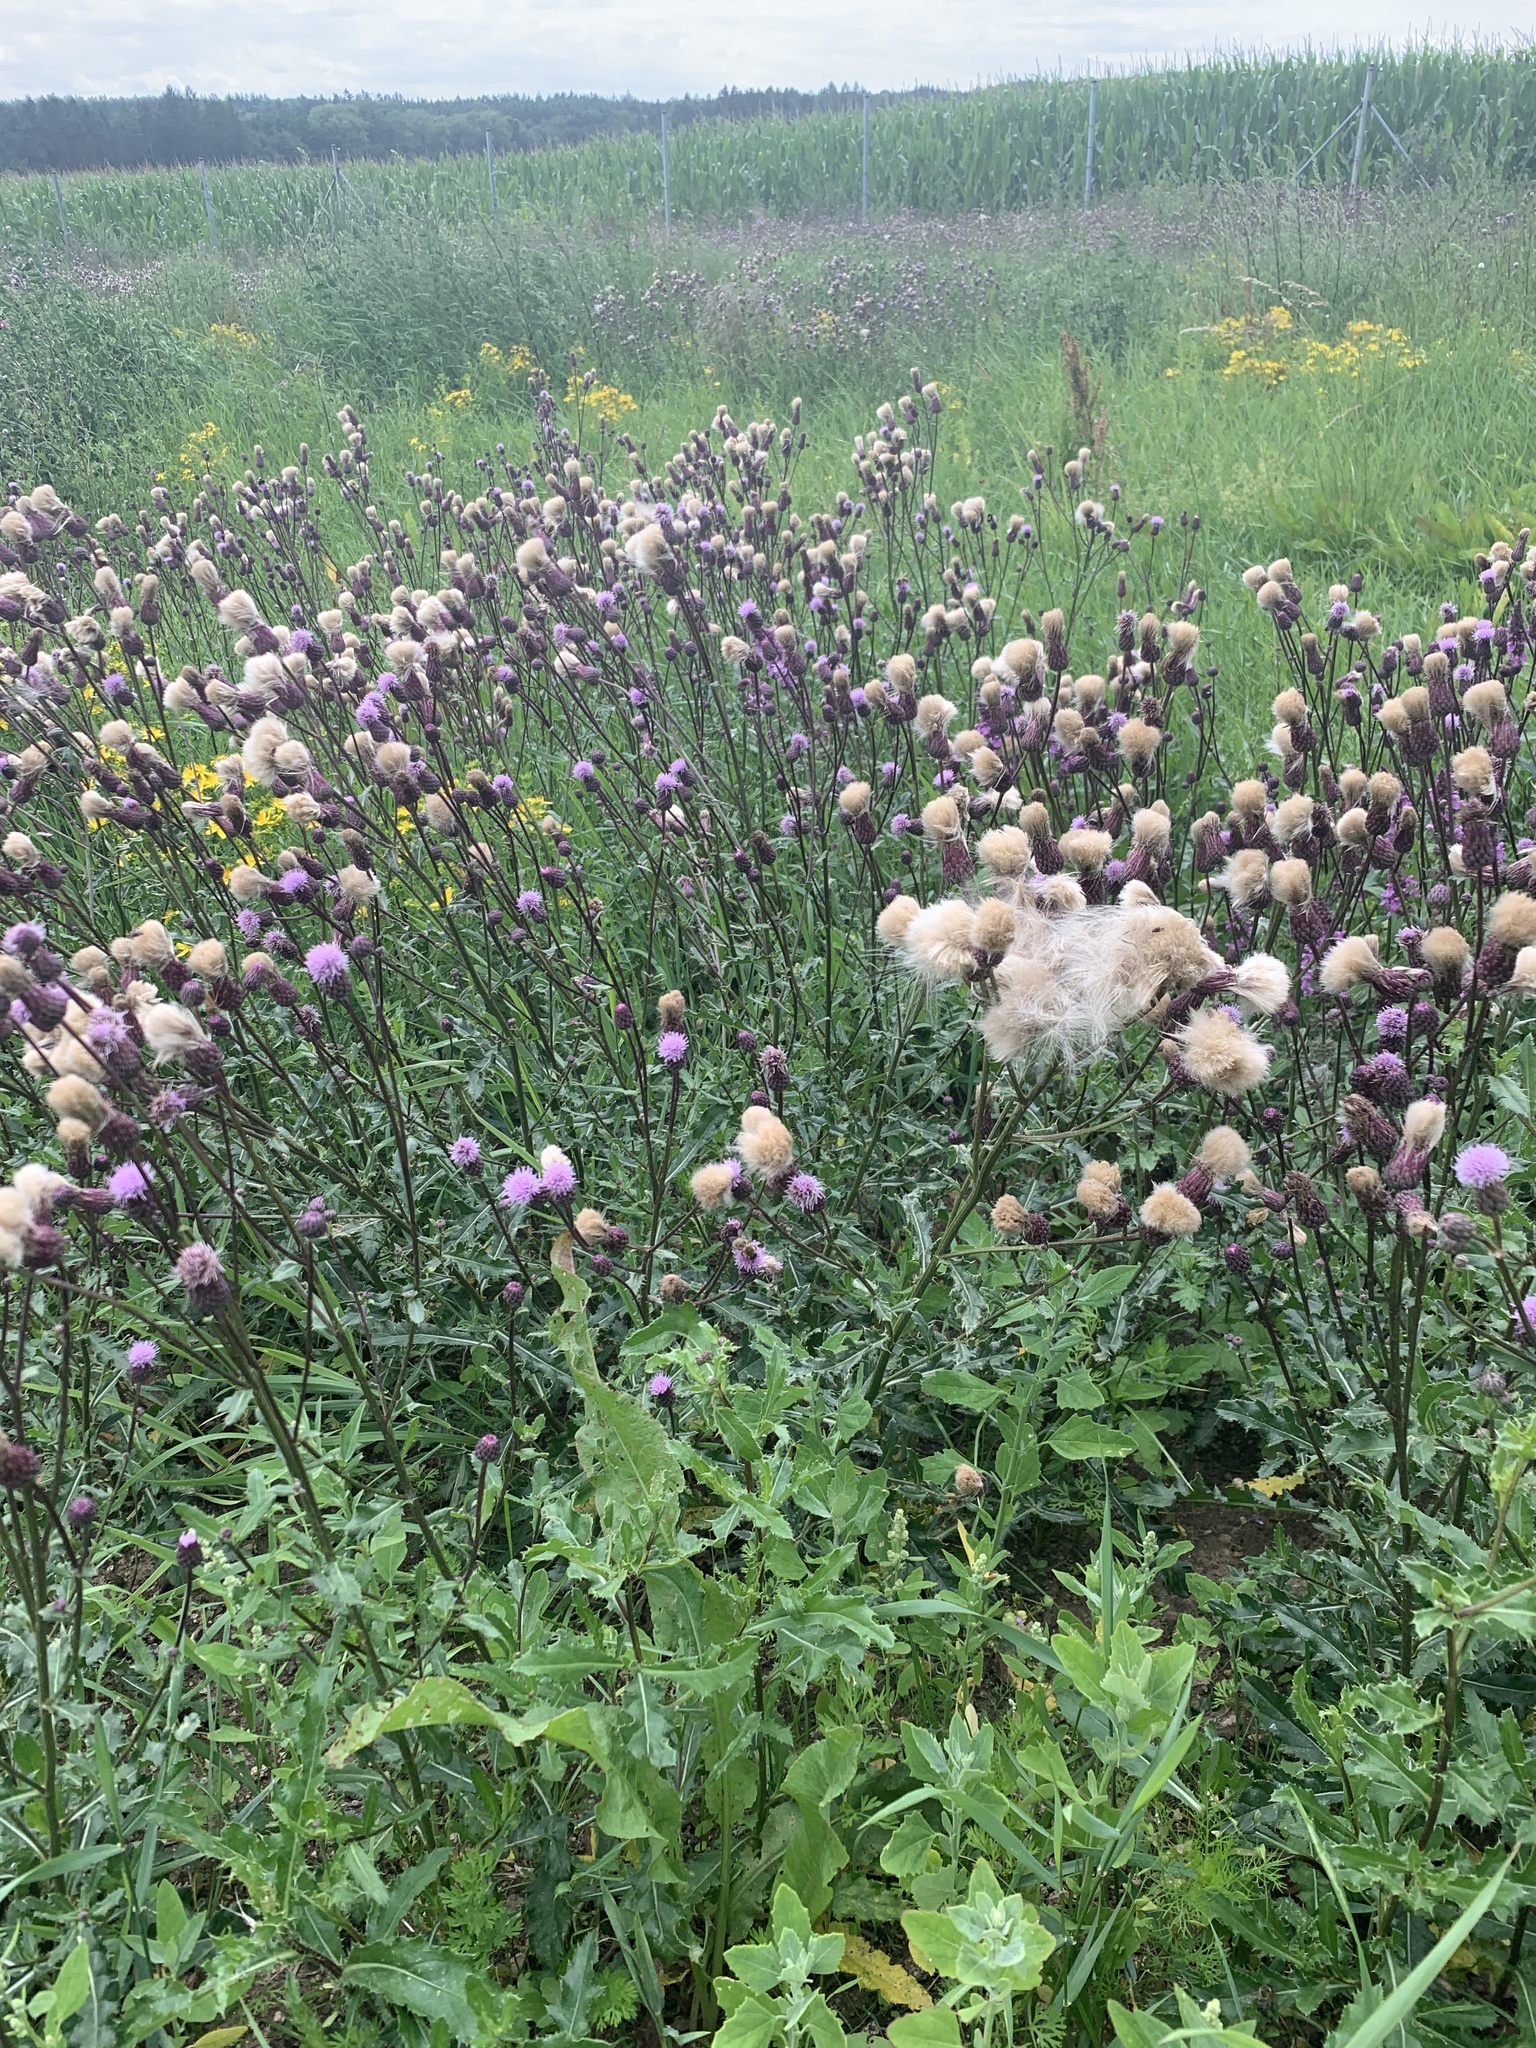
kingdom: Plantae
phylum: Tracheophyta
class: Magnoliopsida
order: Asterales
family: Asteraceae
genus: Cirsium
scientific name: Cirsium arvense
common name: Creeping thistle
